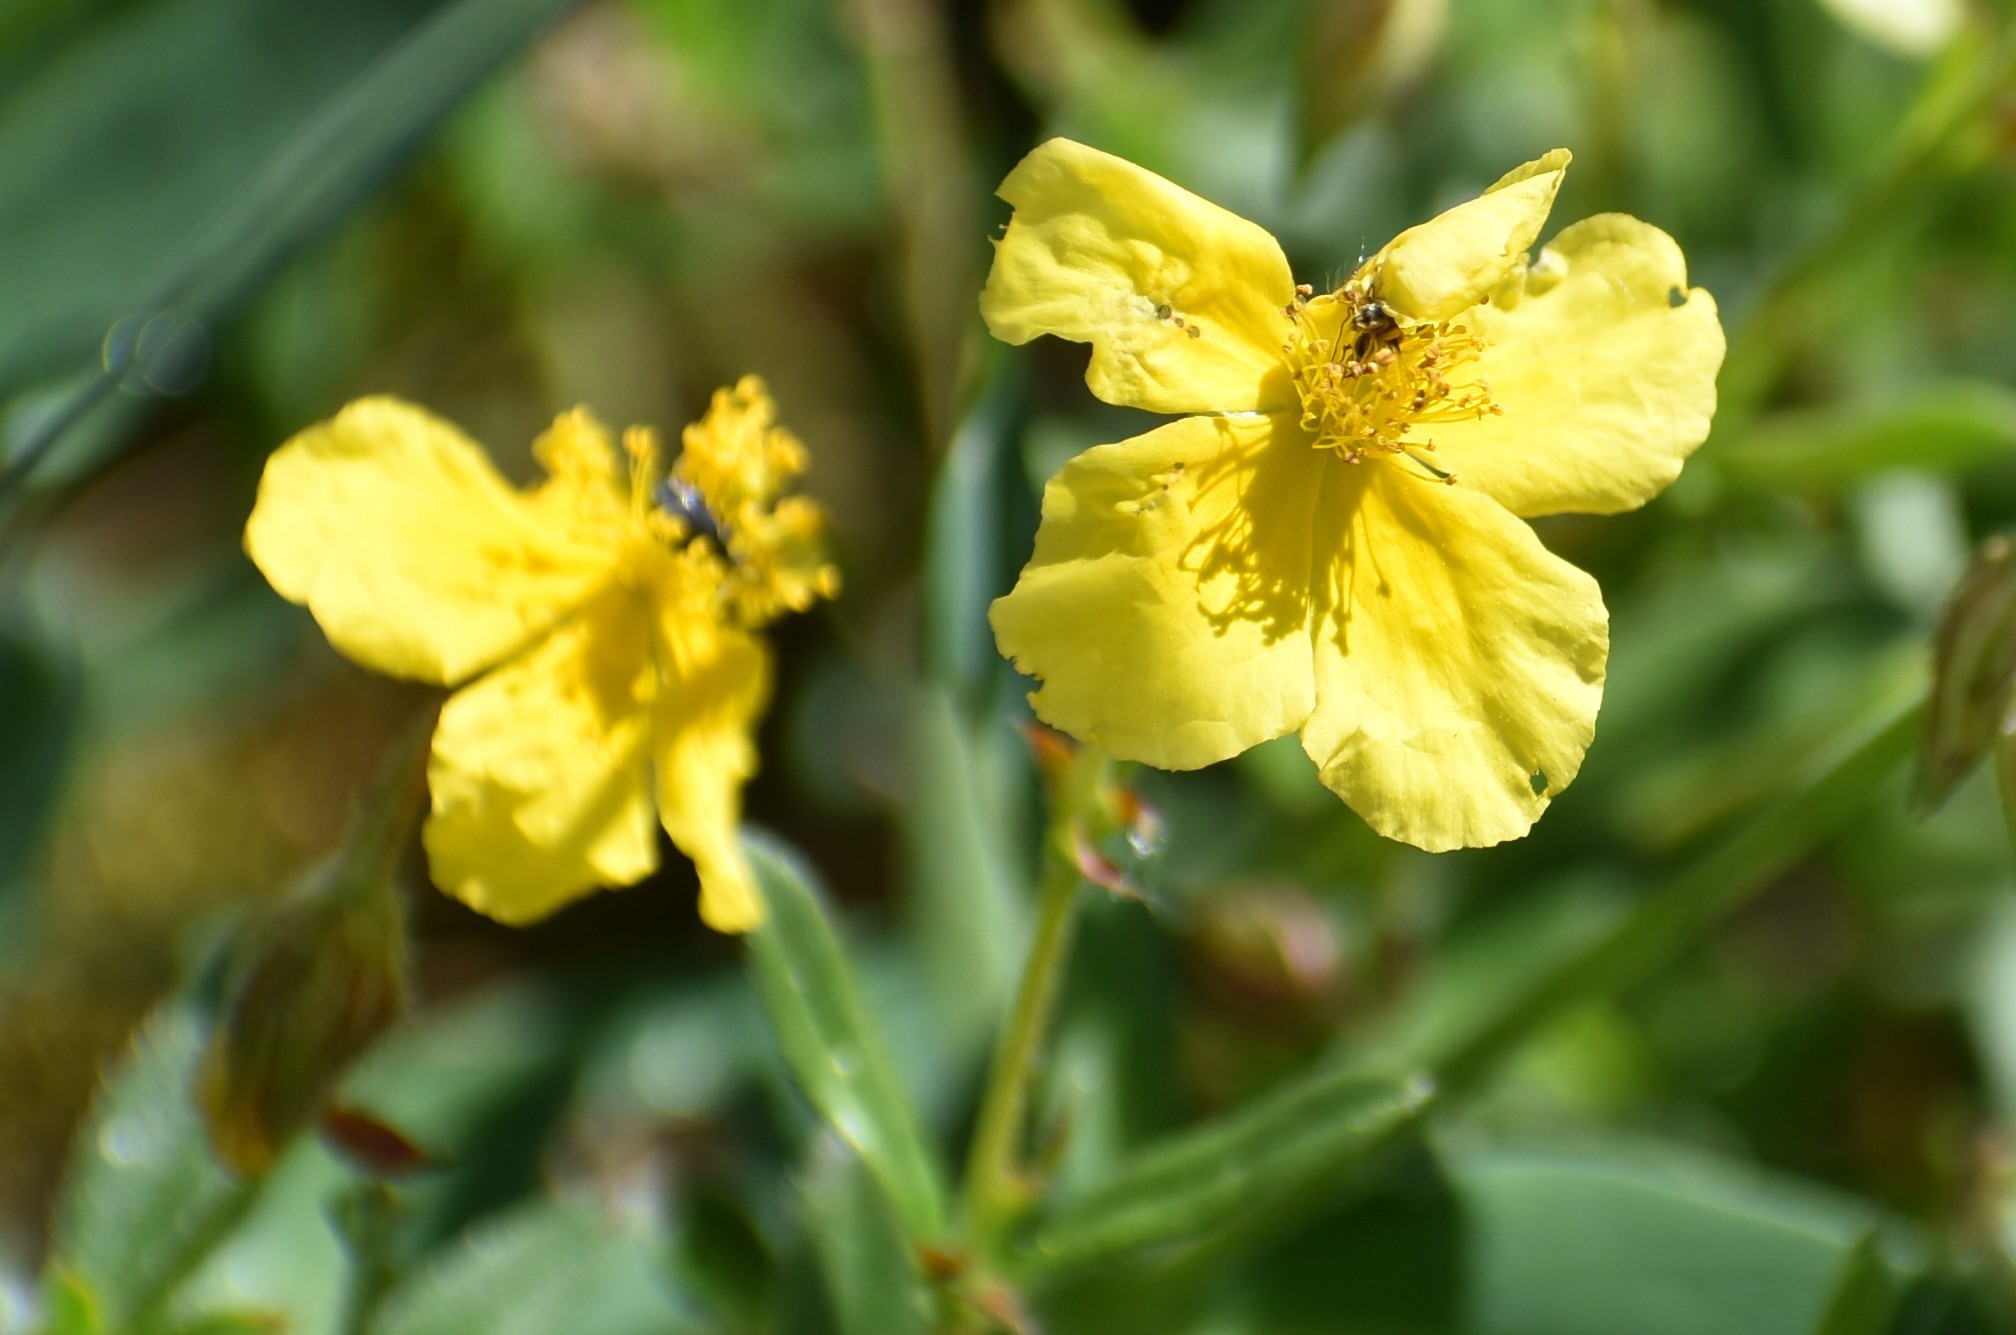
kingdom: Plantae
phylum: Tracheophyta
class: Magnoliopsida
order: Malvales
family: Cistaceae
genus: Helianthemum
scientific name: Helianthemum nummularium
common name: Common rock-rose
